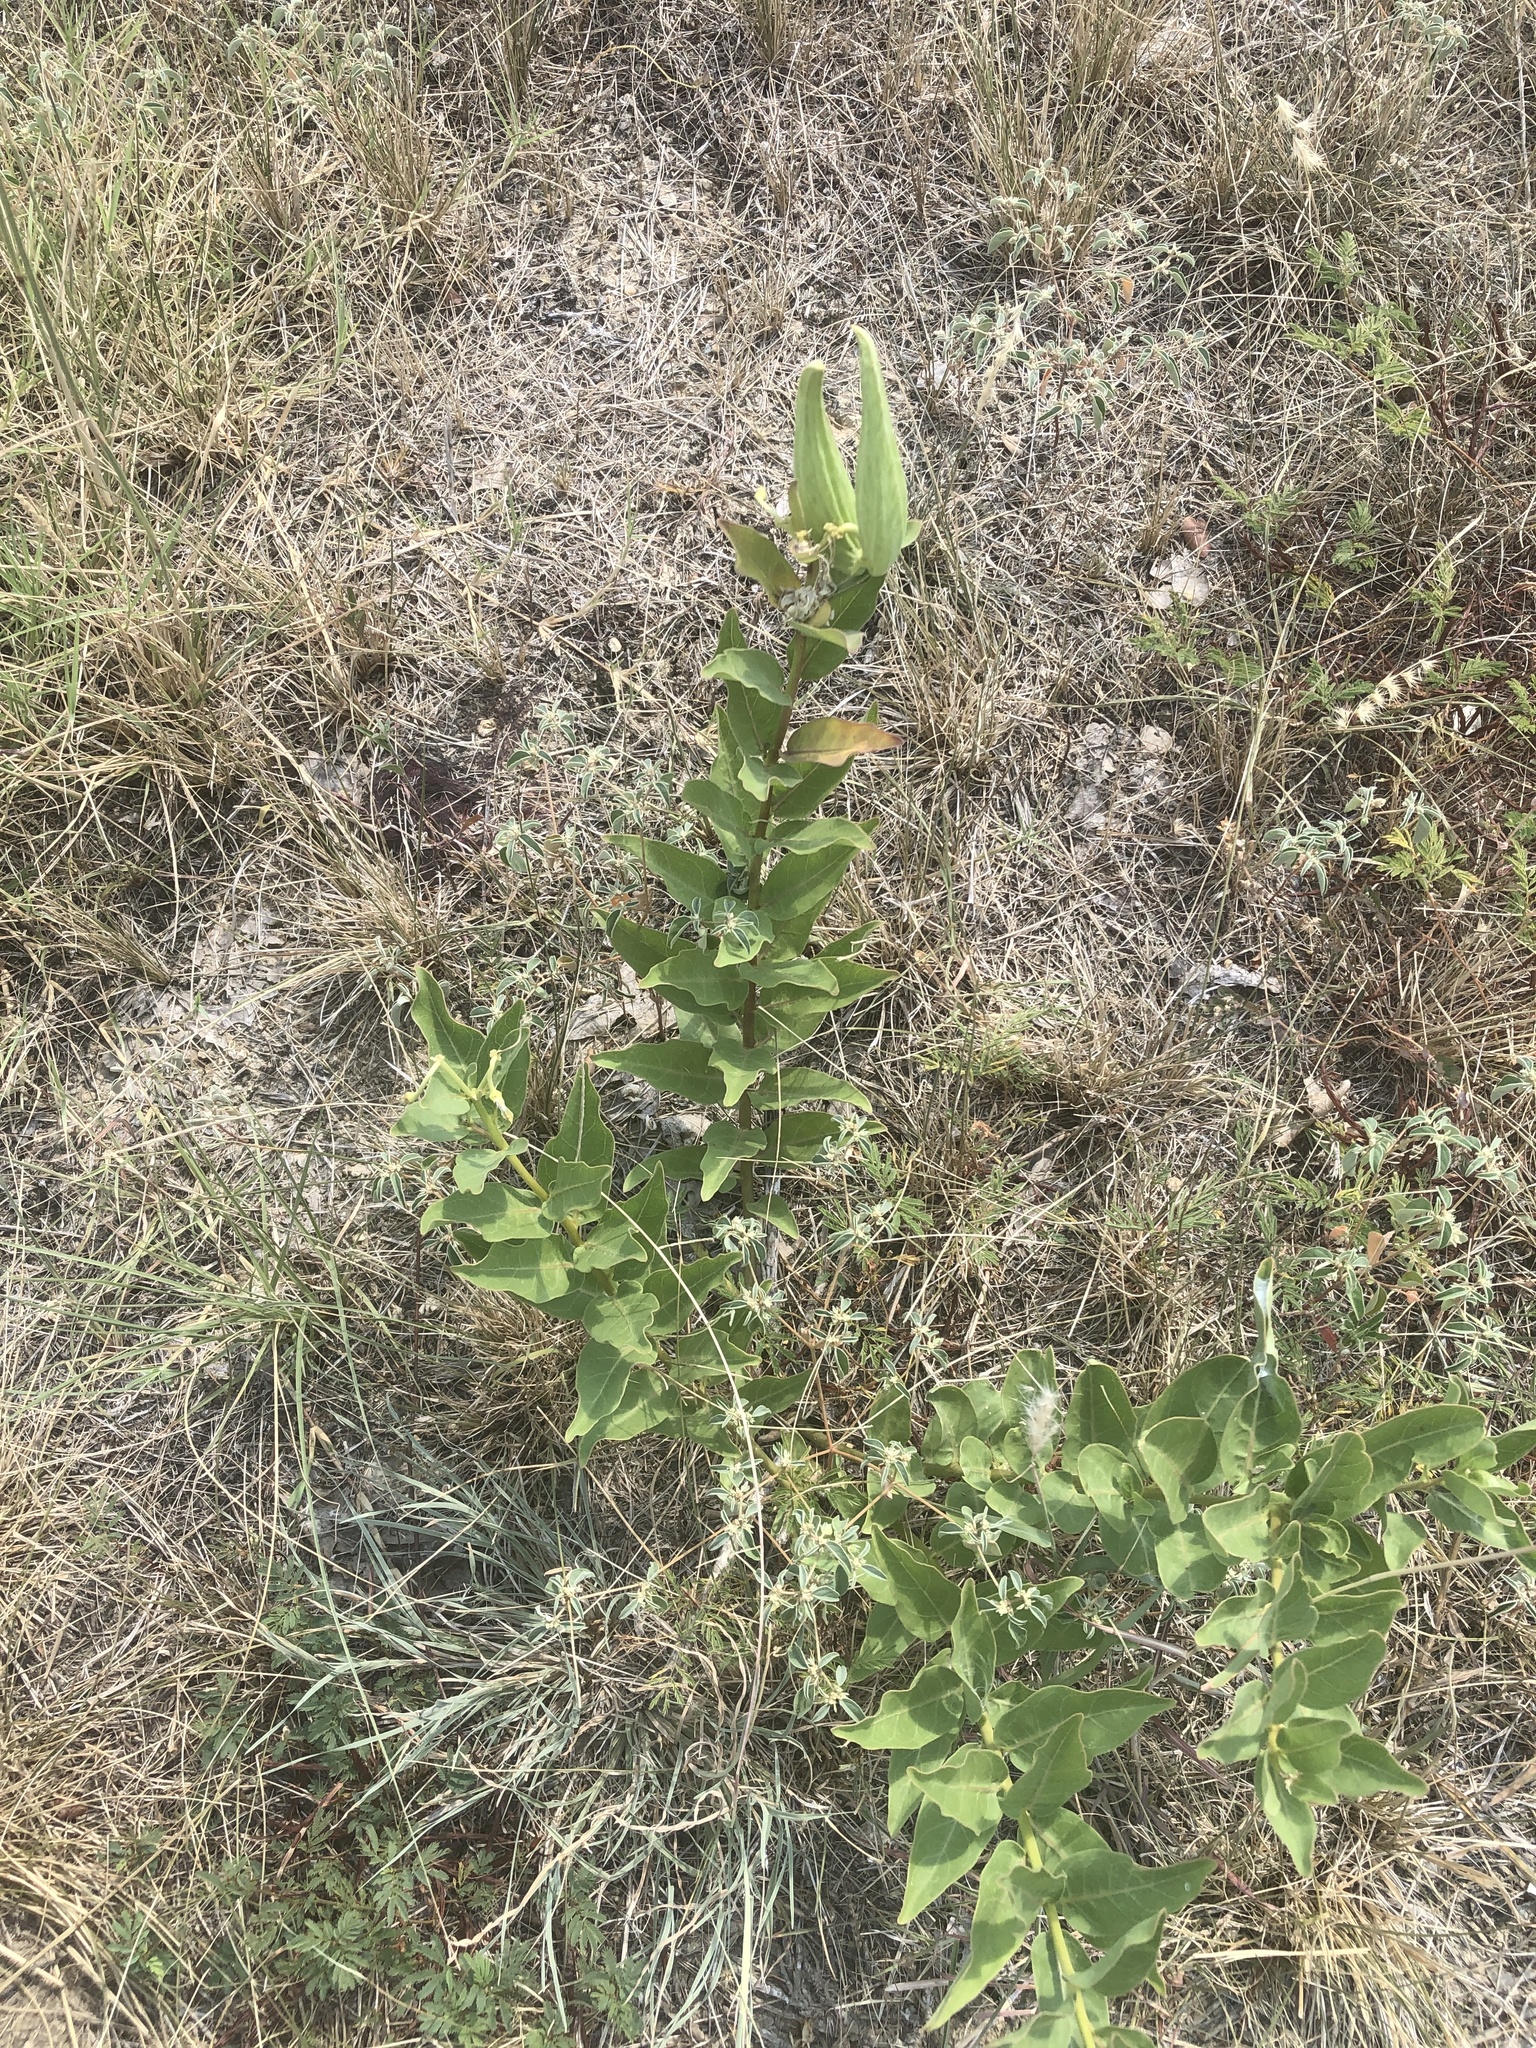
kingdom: Plantae
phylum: Tracheophyta
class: Magnoliopsida
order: Gentianales
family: Apocynaceae
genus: Asclepias
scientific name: Asclepias viridis
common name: Antelope-horns
